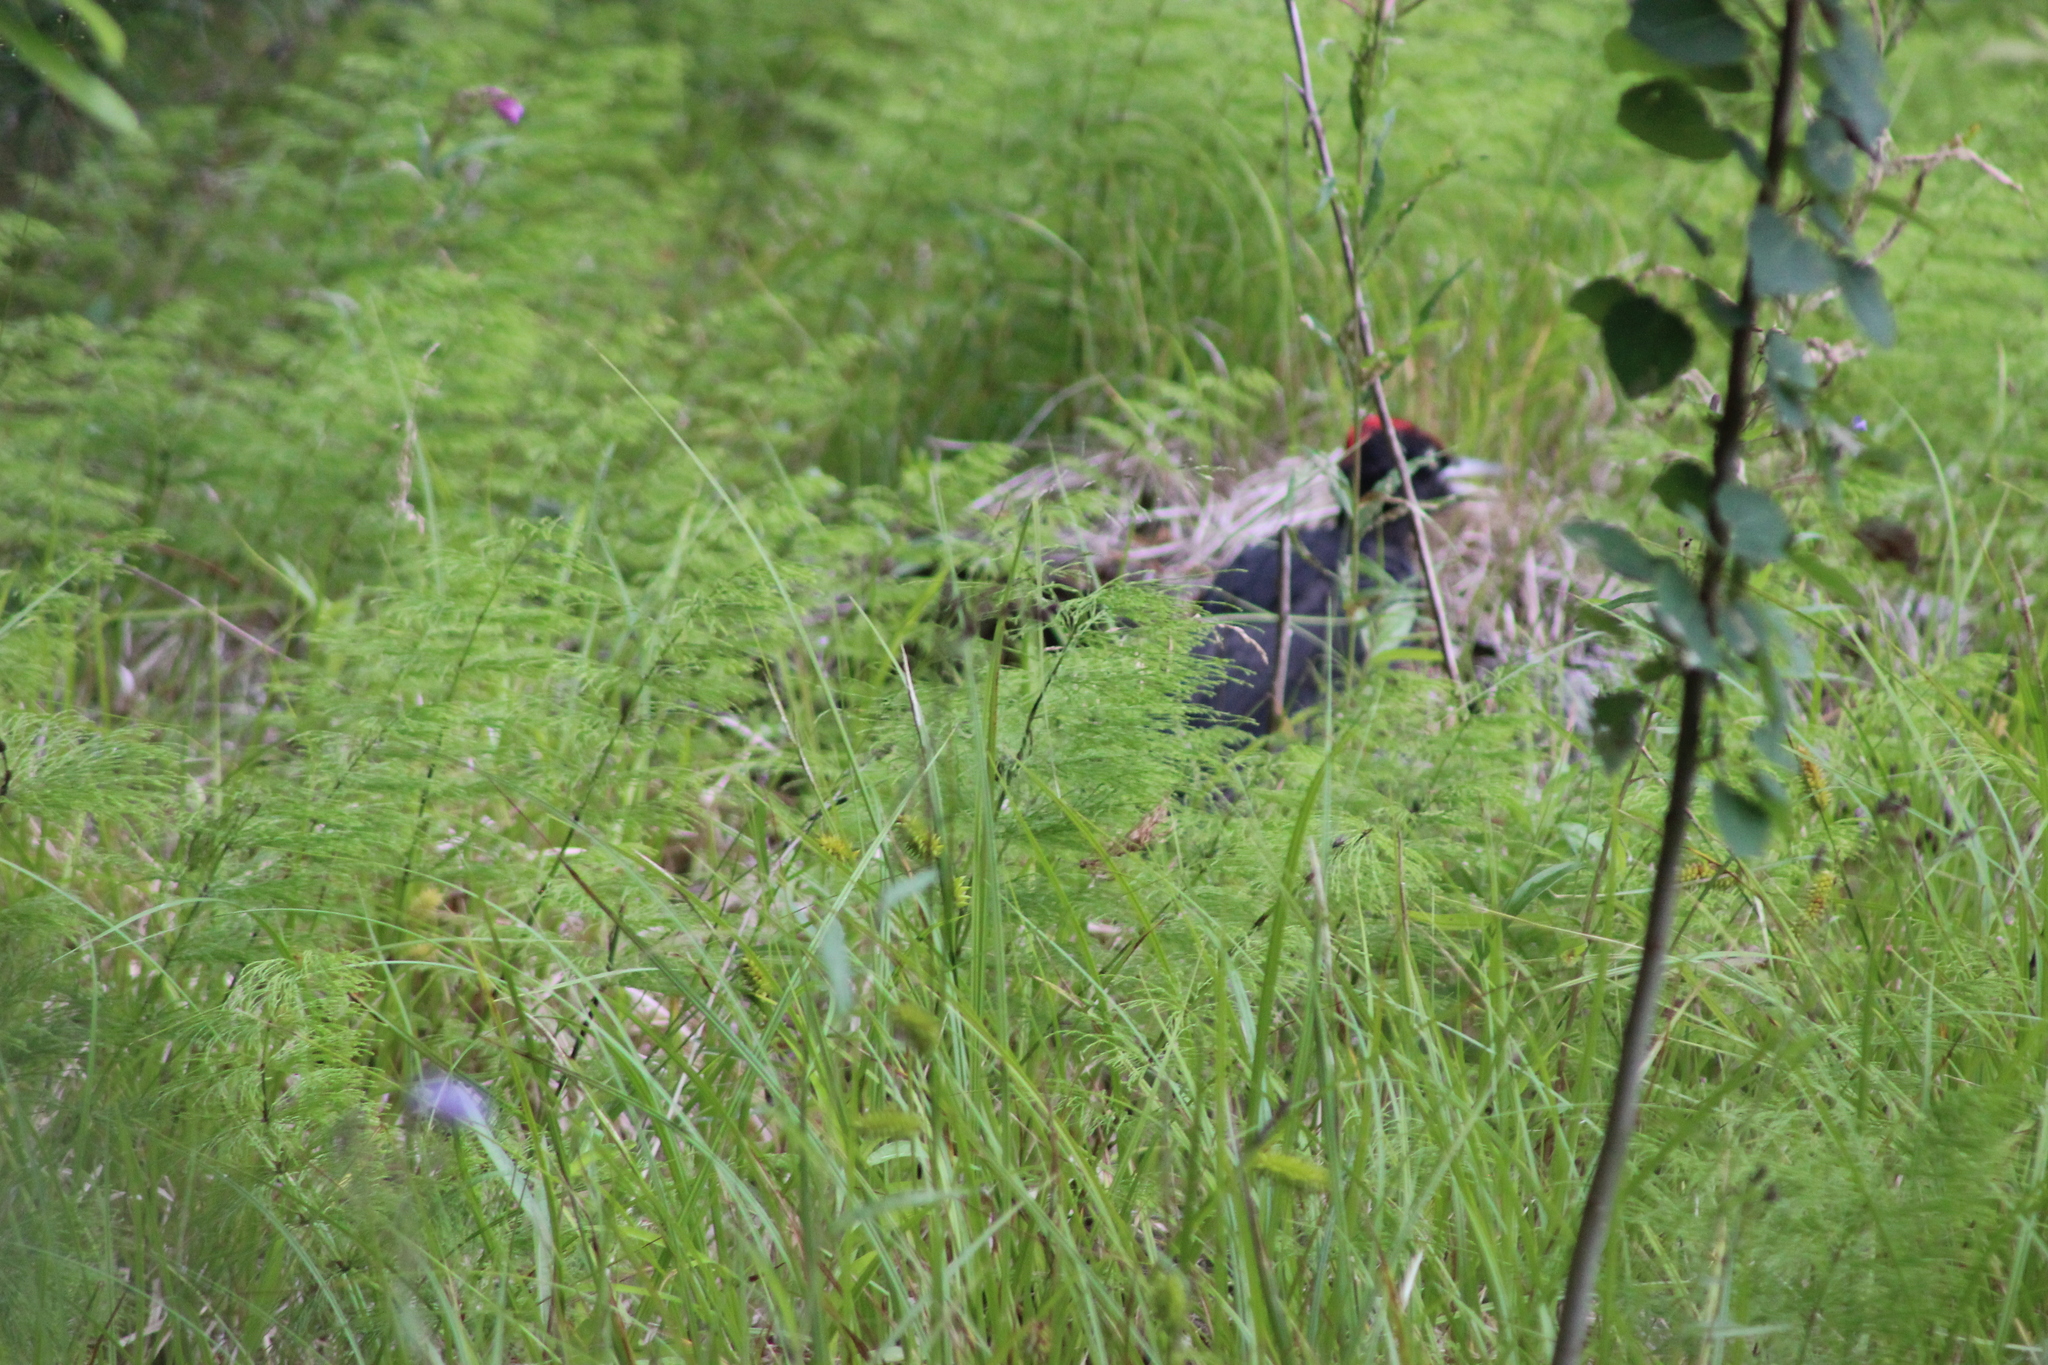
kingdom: Animalia
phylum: Chordata
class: Aves
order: Piciformes
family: Picidae
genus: Dryocopus
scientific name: Dryocopus martius
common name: Black woodpecker
